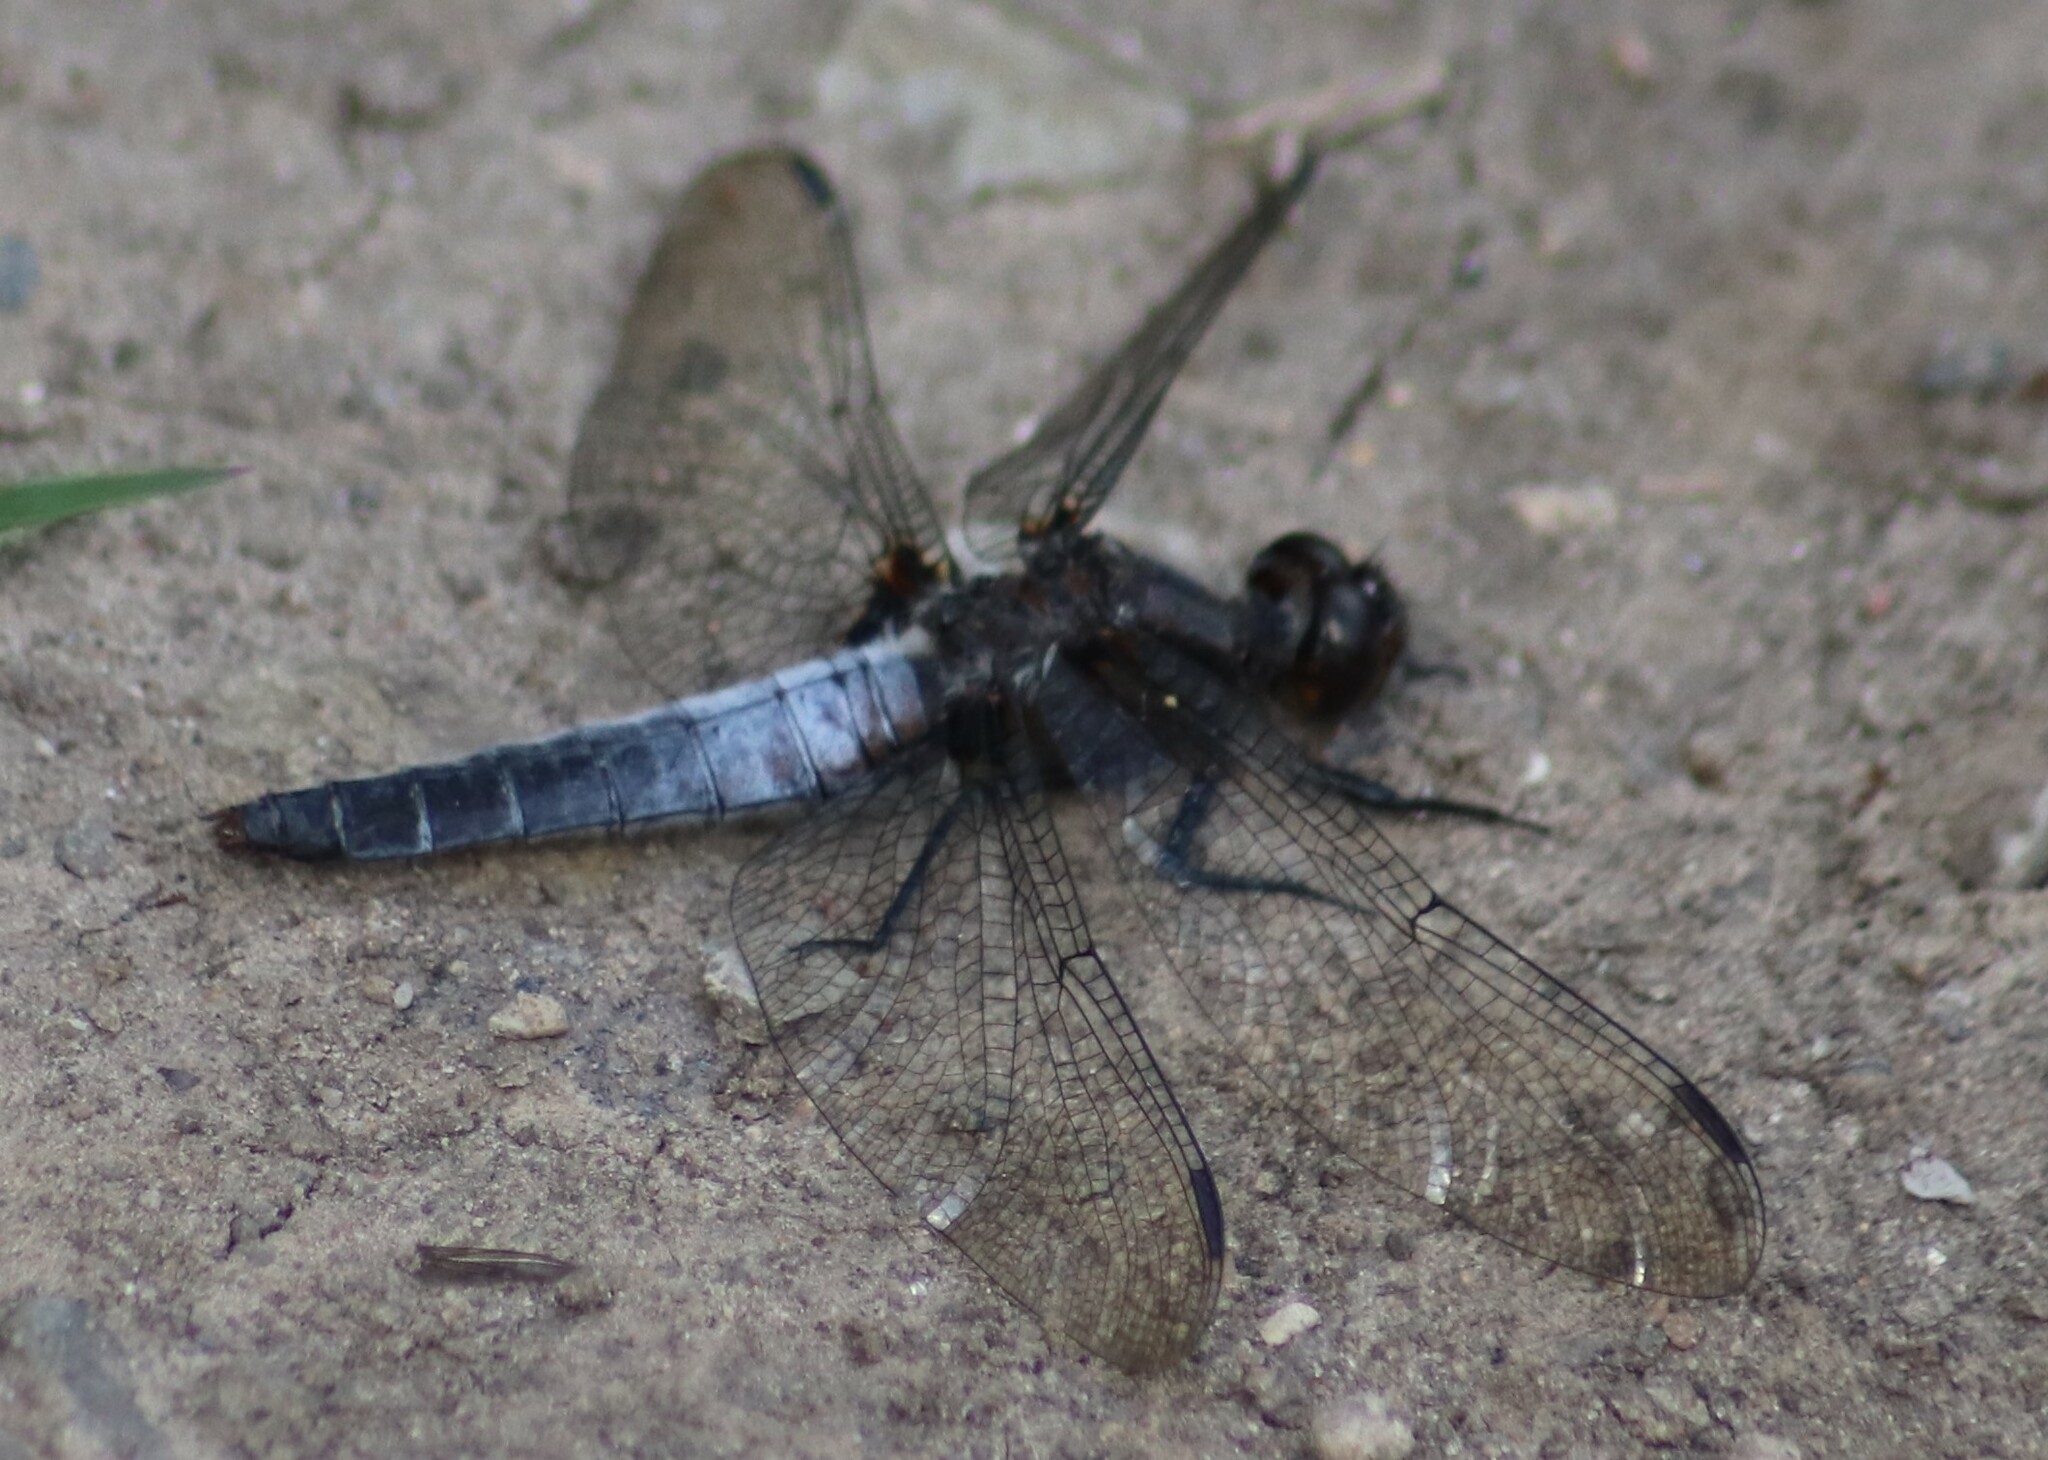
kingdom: Animalia
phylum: Arthropoda
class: Insecta
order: Odonata
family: Libellulidae
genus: Ladona
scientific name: Ladona julia
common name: Chalk-fronted corporal
